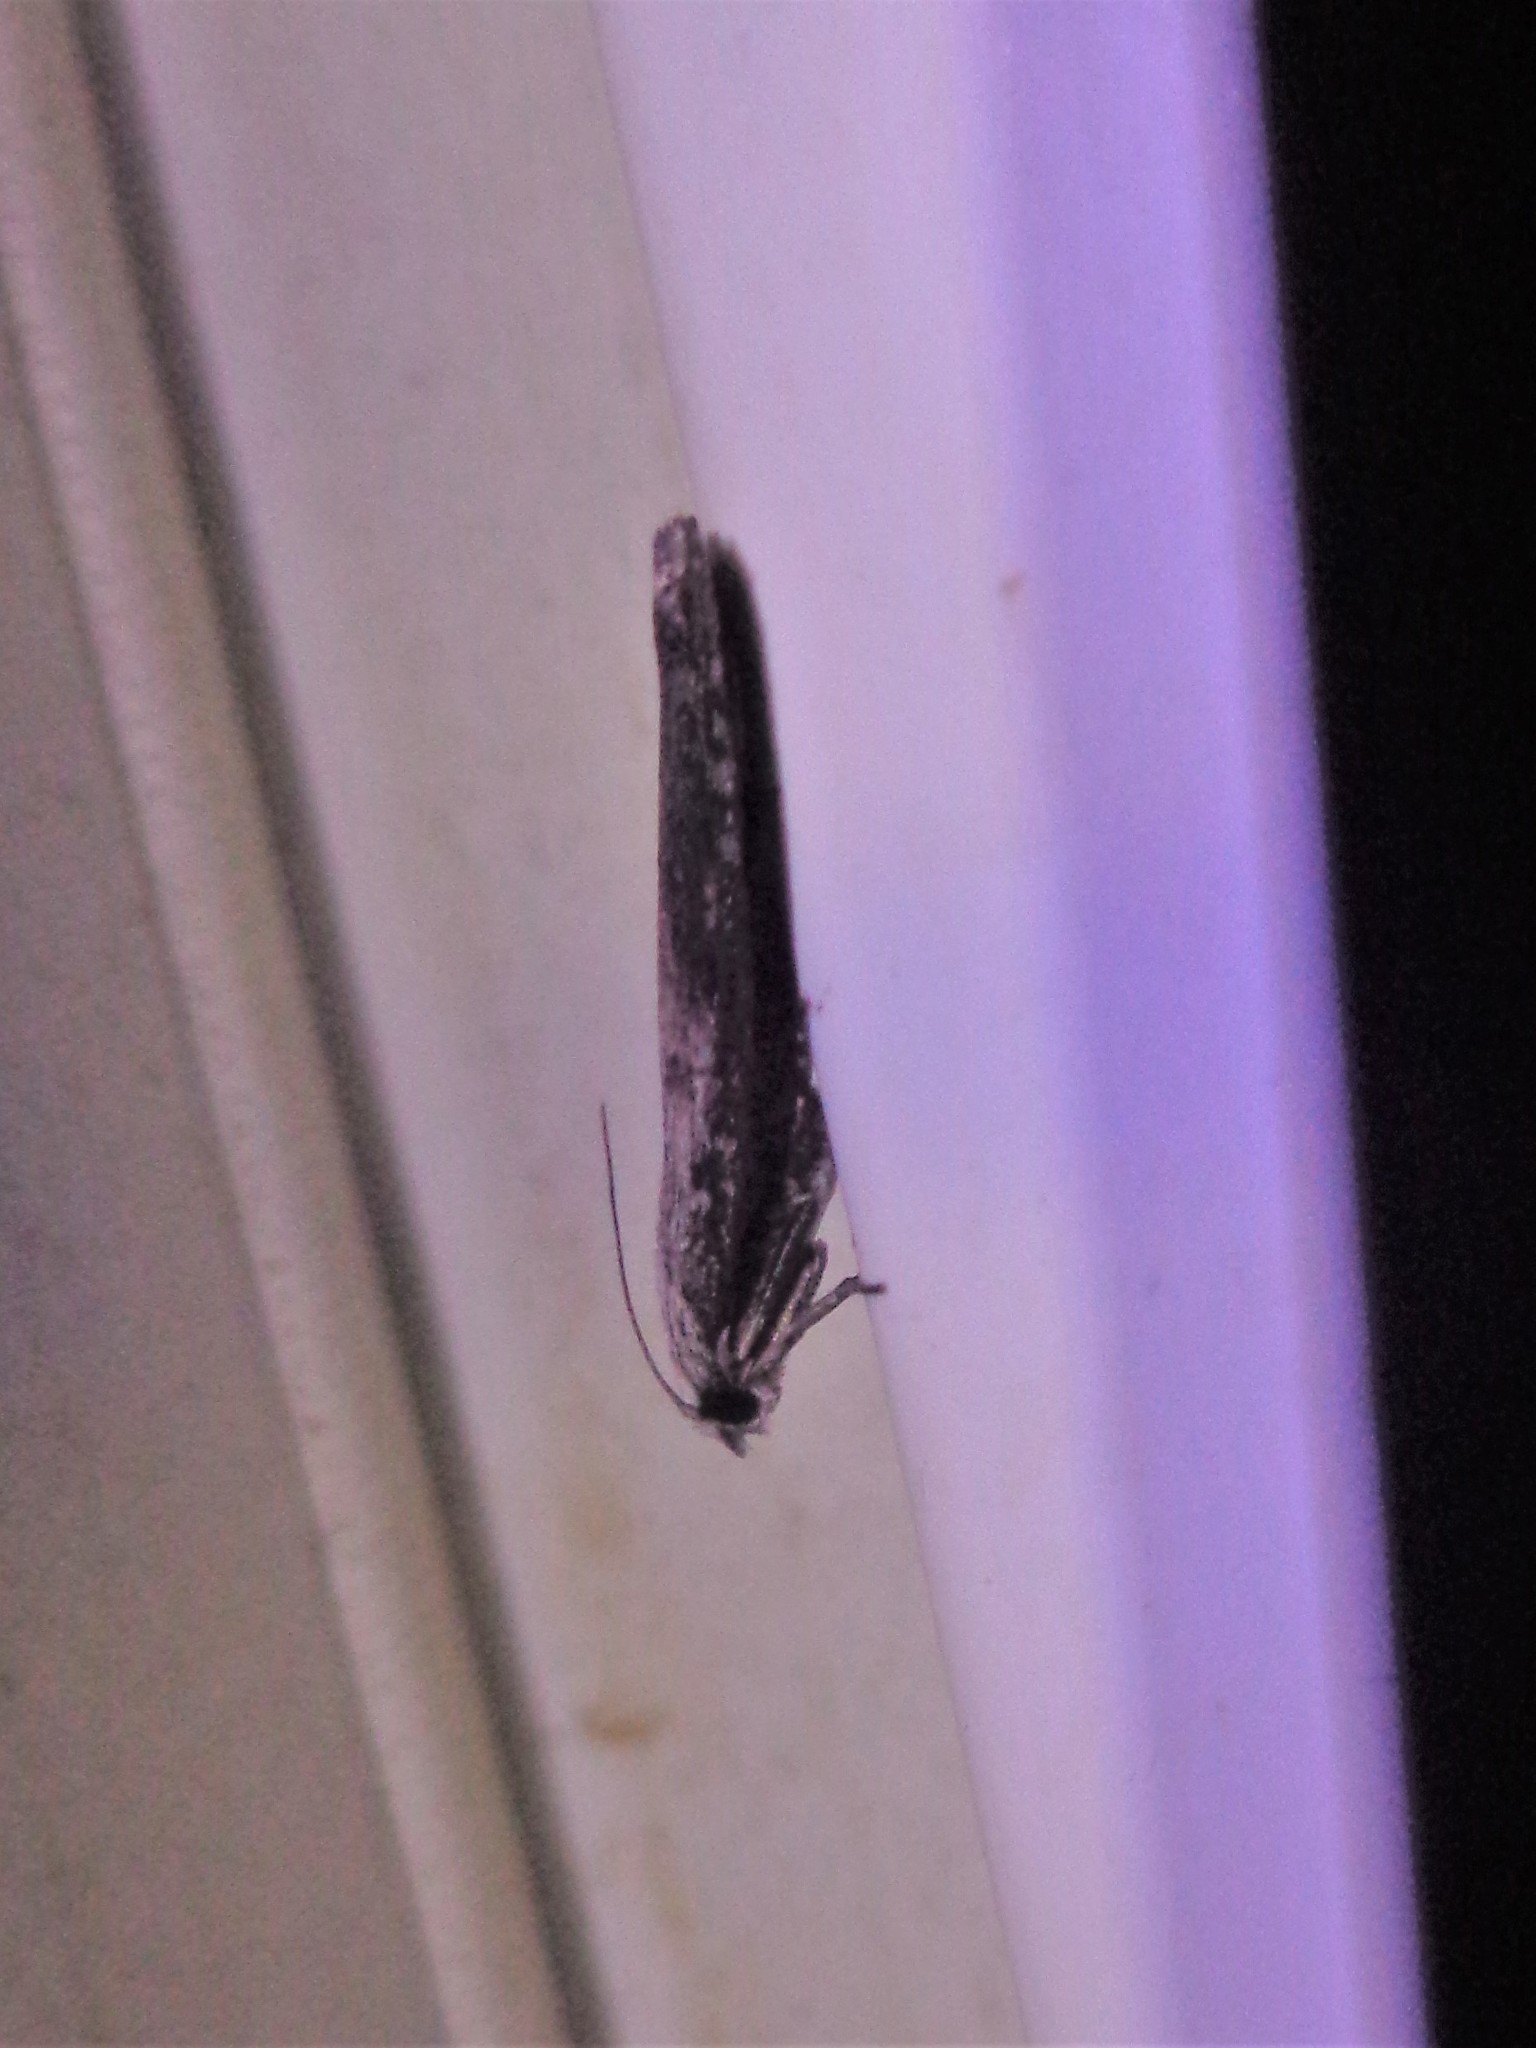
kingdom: Animalia
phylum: Arthropoda
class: Insecta
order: Lepidoptera
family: Pyralidae
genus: Aphomia
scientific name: Aphomia sociella
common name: Bee moth
